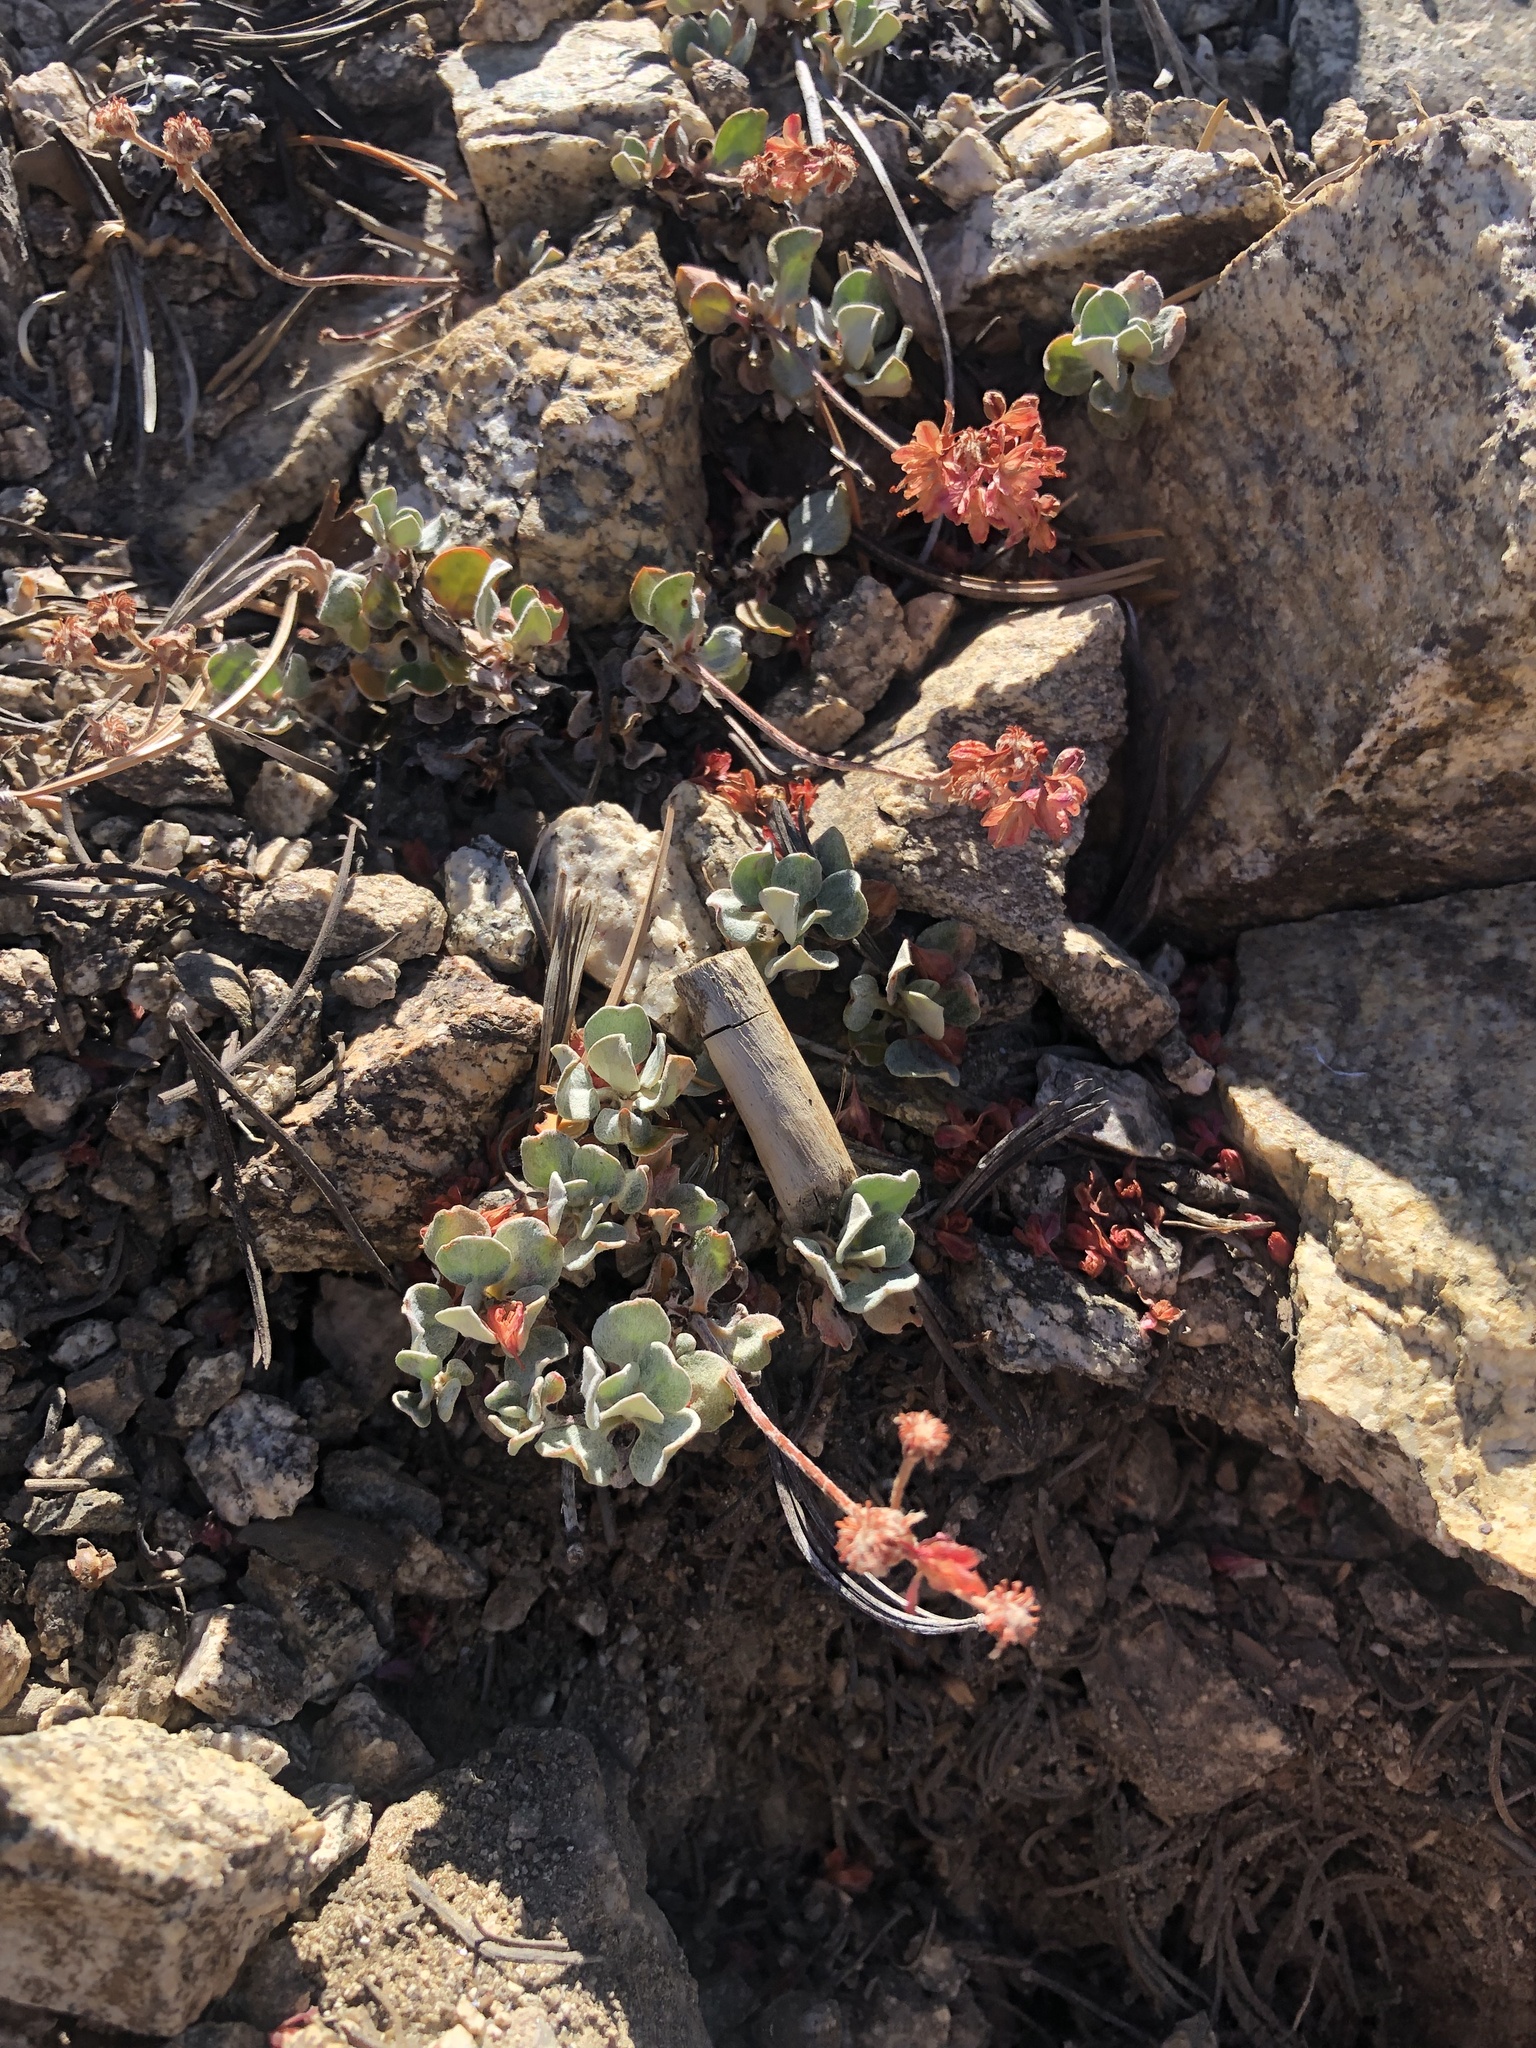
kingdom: Plantae
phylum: Tracheophyta
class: Magnoliopsida
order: Caryophyllales
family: Polygonaceae
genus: Eriogonum
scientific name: Eriogonum umbellatum
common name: Sulfur-buckwheat
